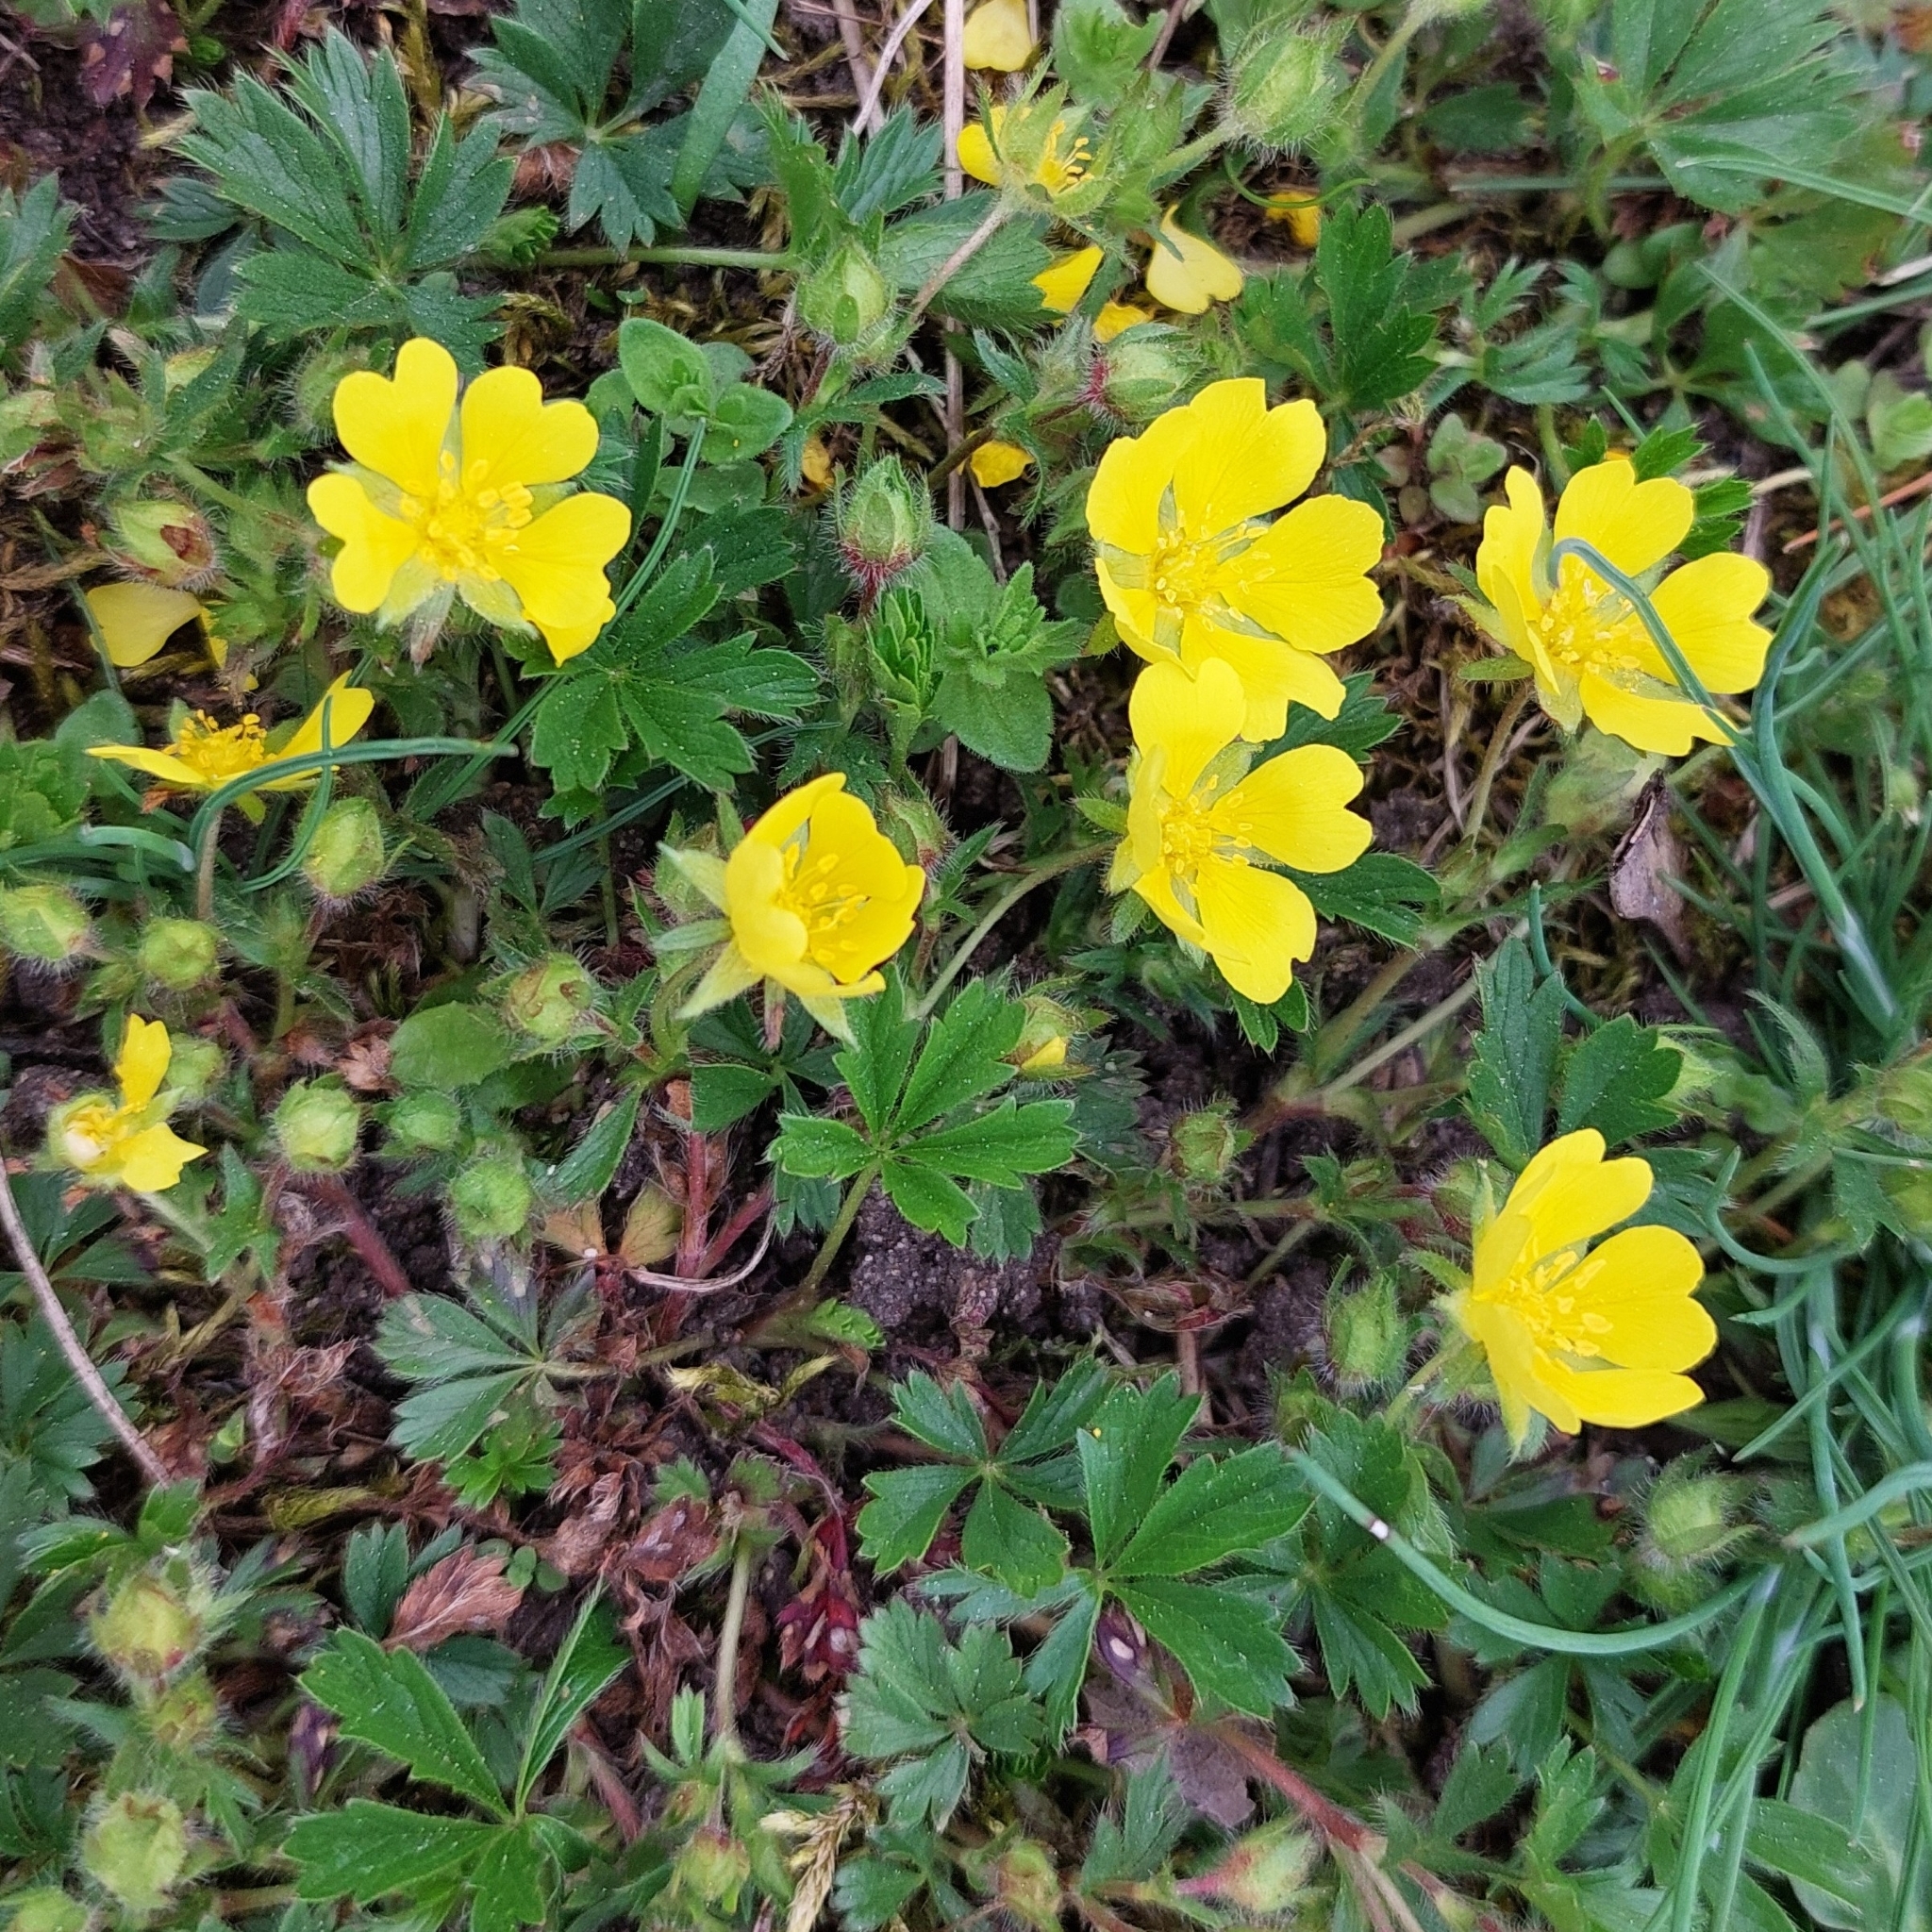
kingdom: Plantae
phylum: Tracheophyta
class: Magnoliopsida
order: Rosales
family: Rosaceae
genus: Potentilla
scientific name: Potentilla verna
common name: Spring cinquefoil
